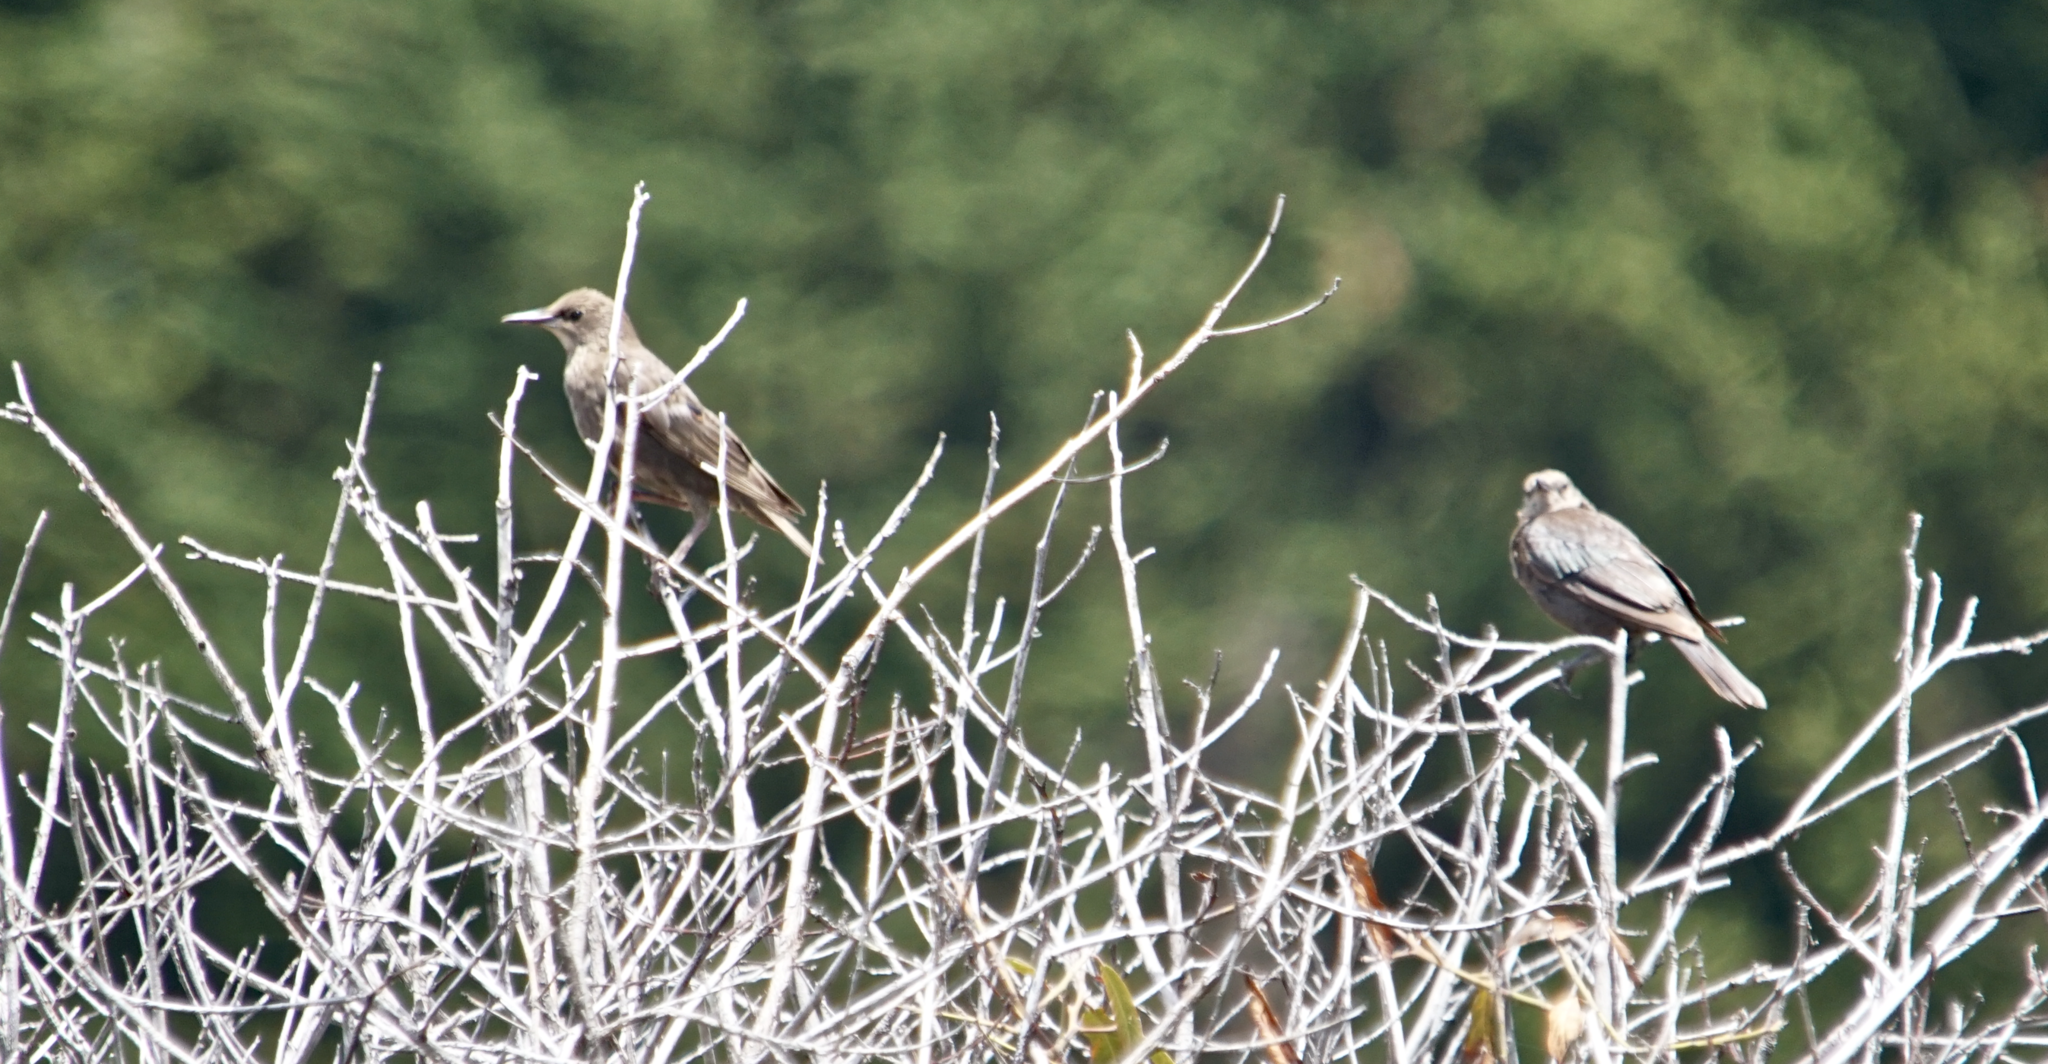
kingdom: Animalia
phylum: Chordata
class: Aves
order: Passeriformes
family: Sturnidae
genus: Sturnus
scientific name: Sturnus vulgaris
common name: Common starling
